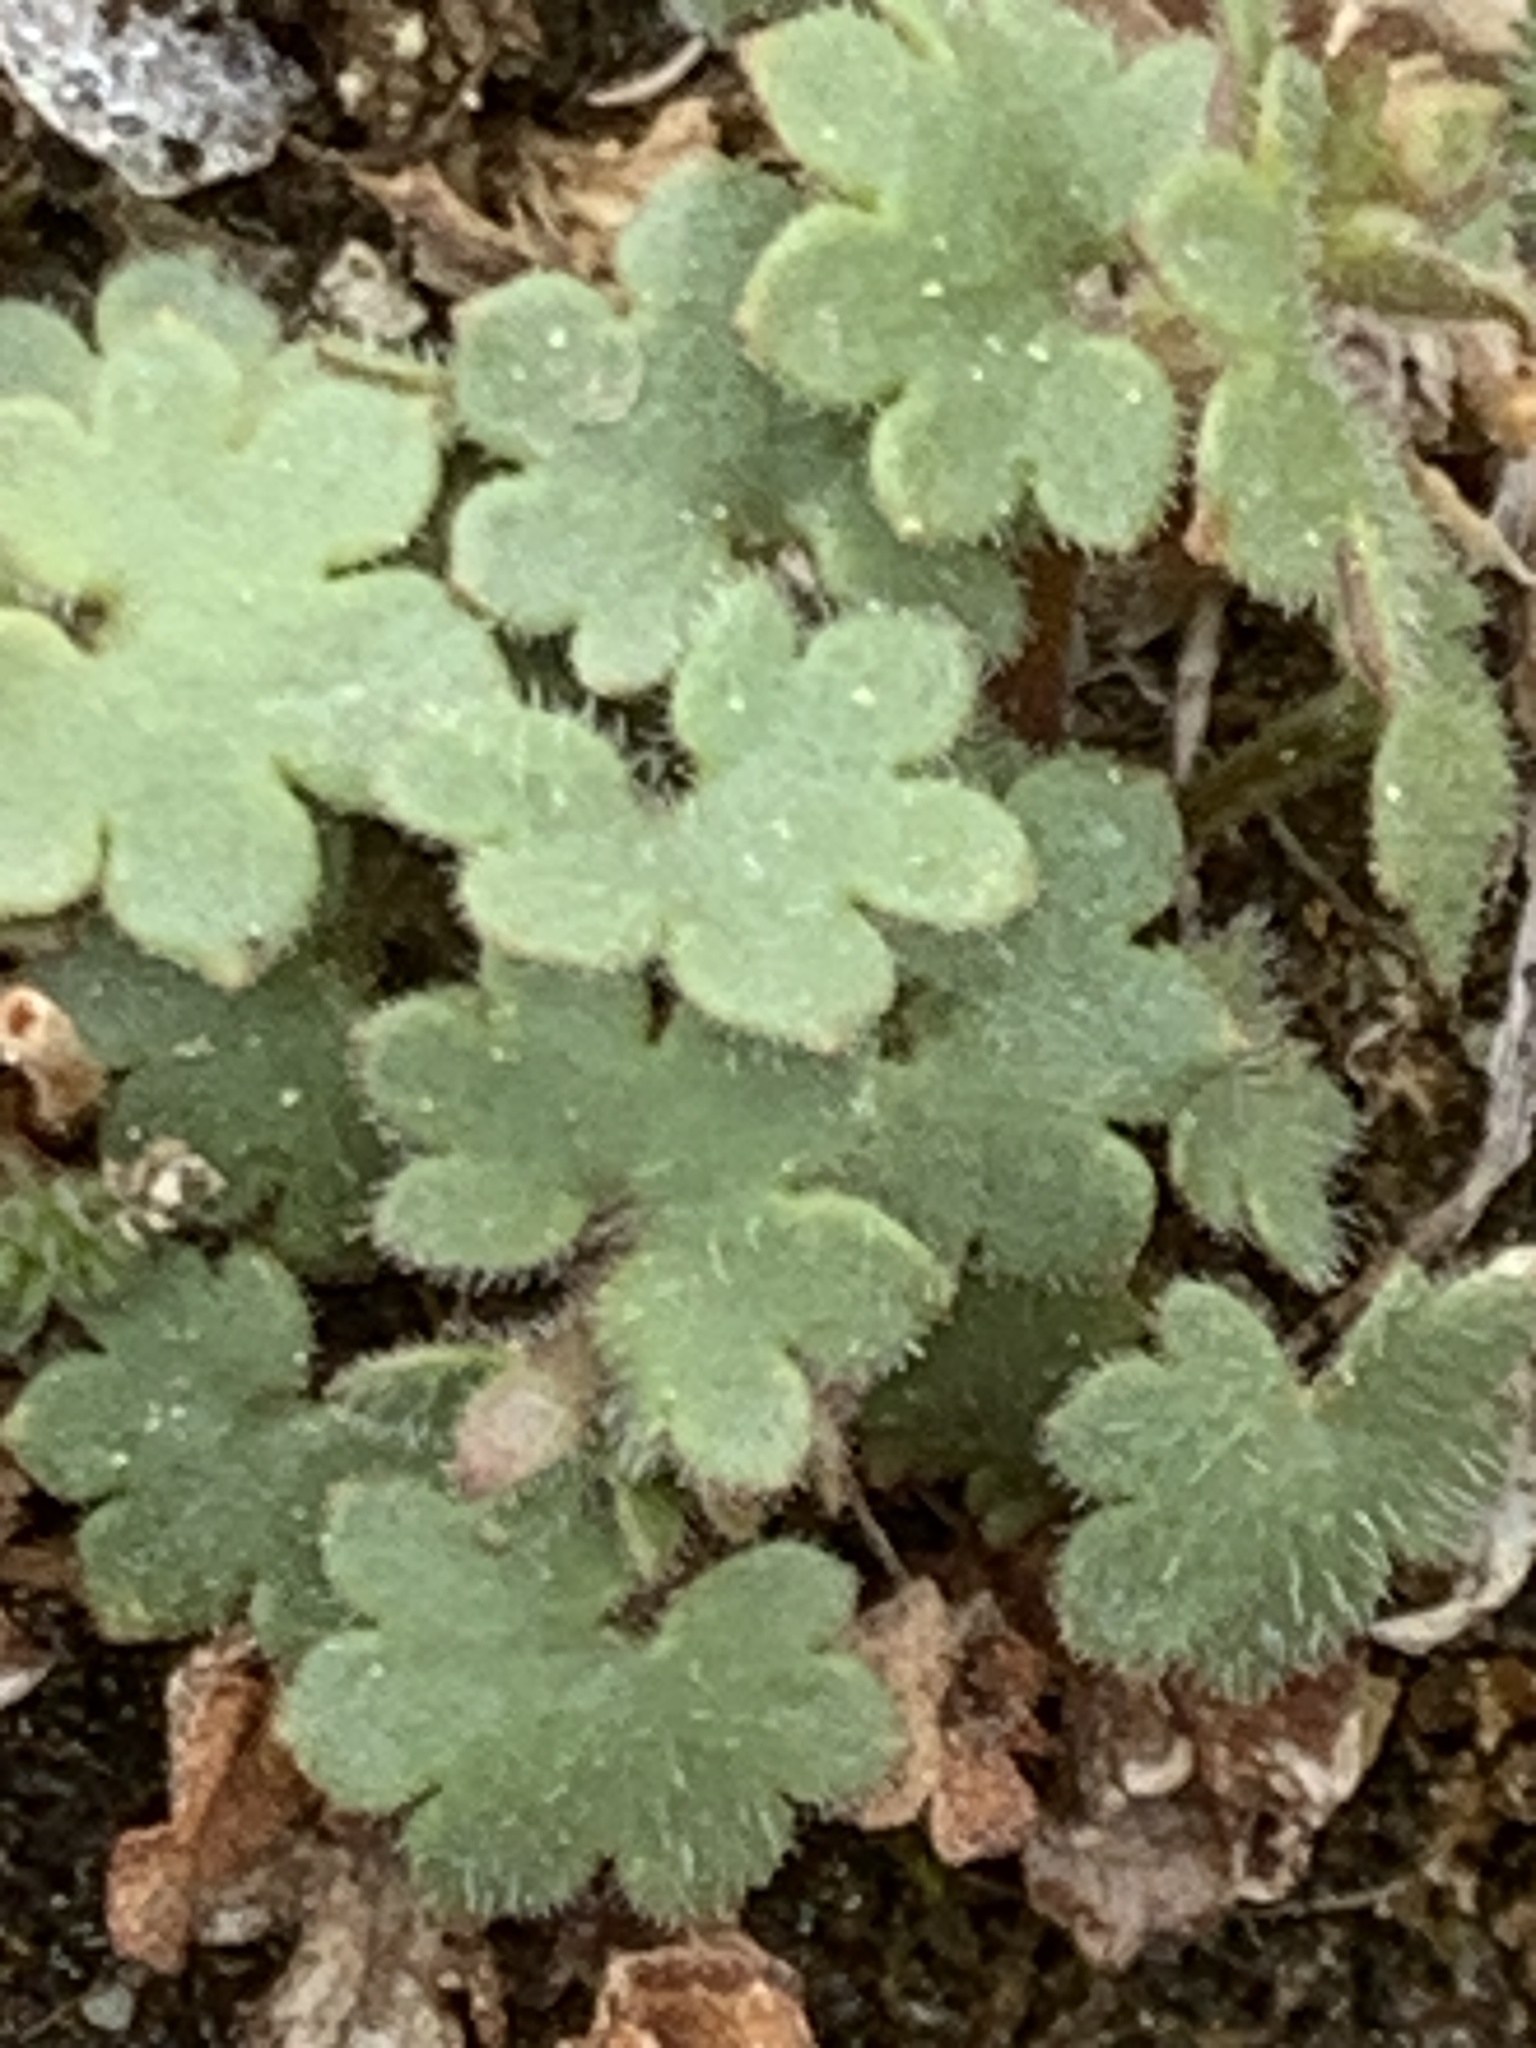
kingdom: Plantae
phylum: Tracheophyta
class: Magnoliopsida
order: Saxifragales
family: Saxifragaceae
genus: Saxifraga
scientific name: Saxifraga cernua
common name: Drooping saxifrage
